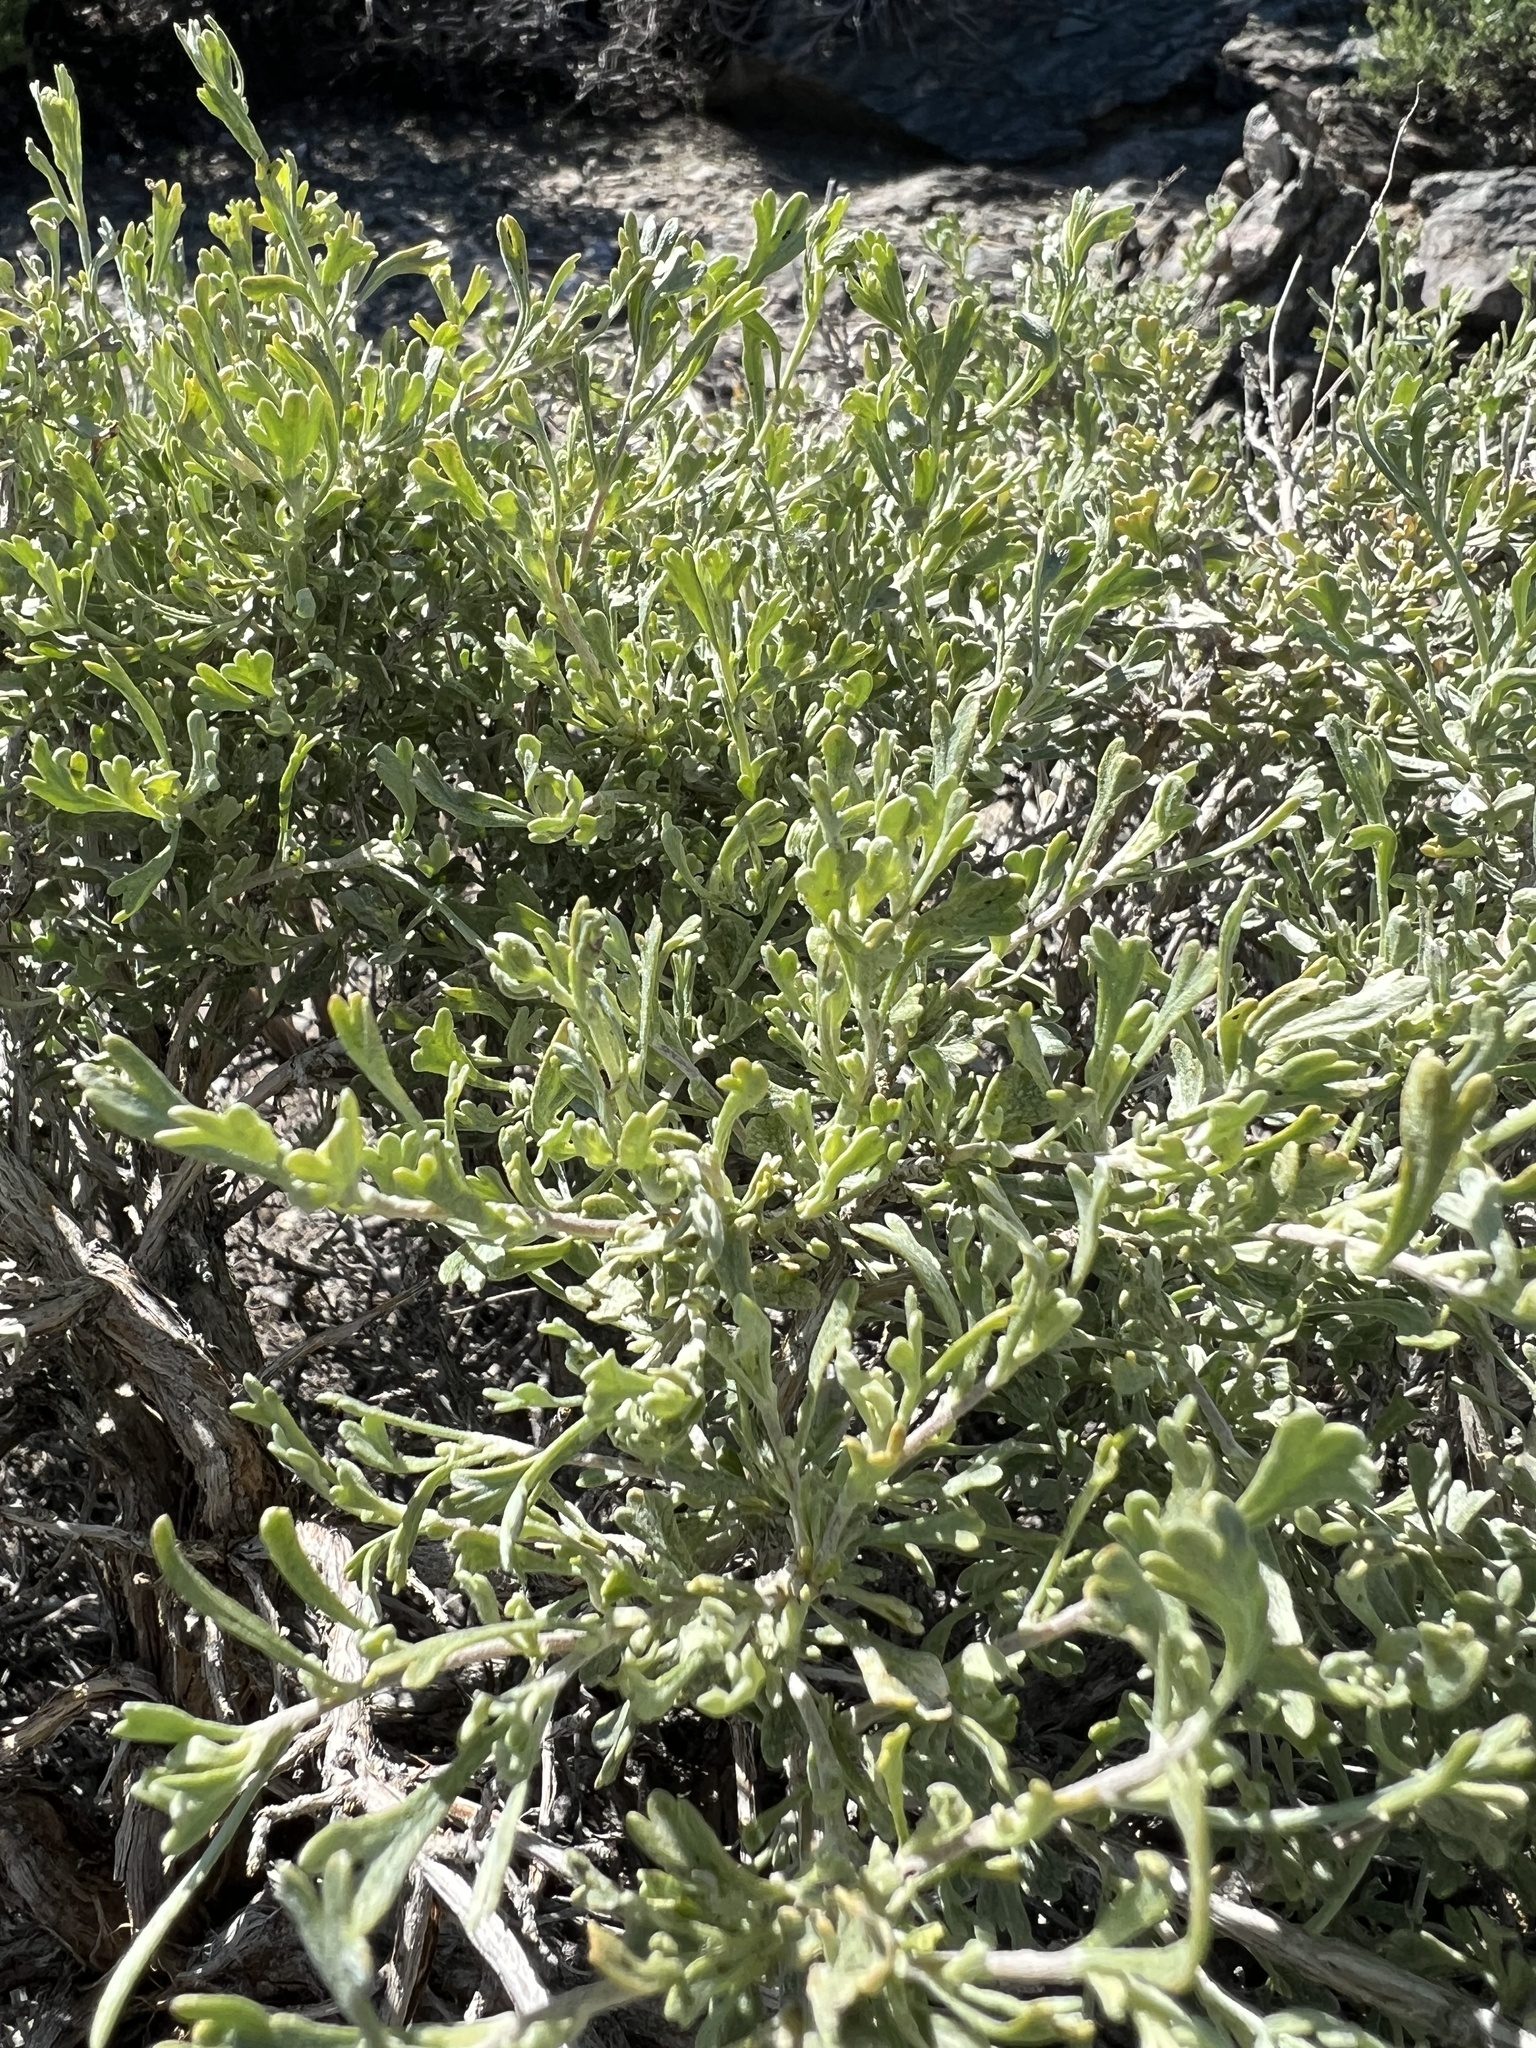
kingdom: Plantae
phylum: Tracheophyta
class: Magnoliopsida
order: Asterales
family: Asteraceae
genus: Artemisia
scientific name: Artemisia nova
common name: Black-sage
